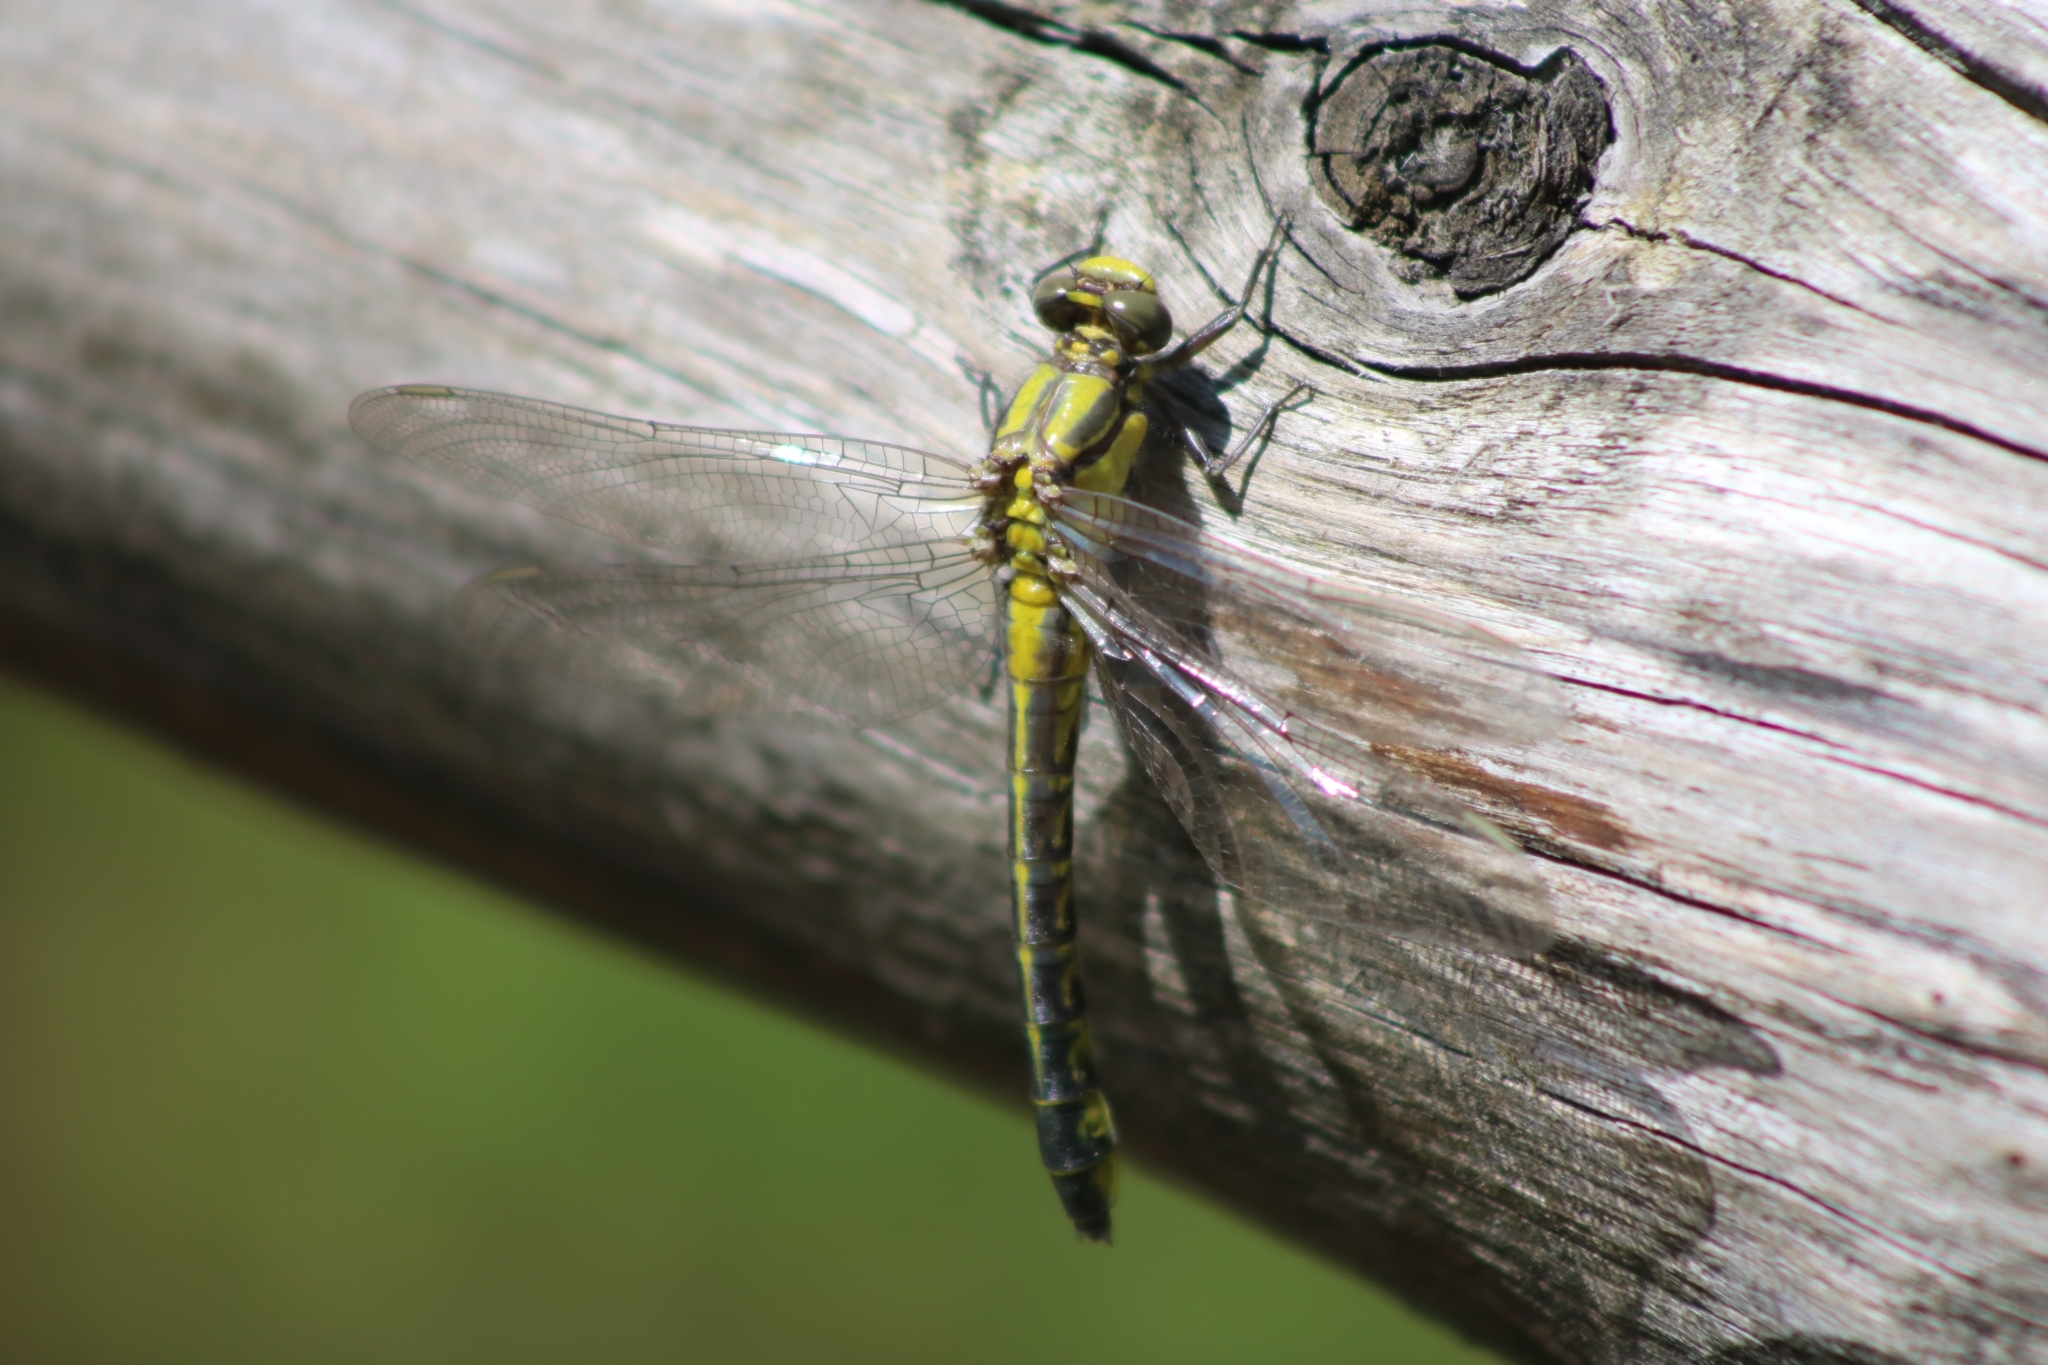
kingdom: Animalia
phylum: Arthropoda
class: Insecta
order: Odonata
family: Gomphidae
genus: Gomphus
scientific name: Gomphus vulgatissimus
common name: Club-tailed dragonfly
